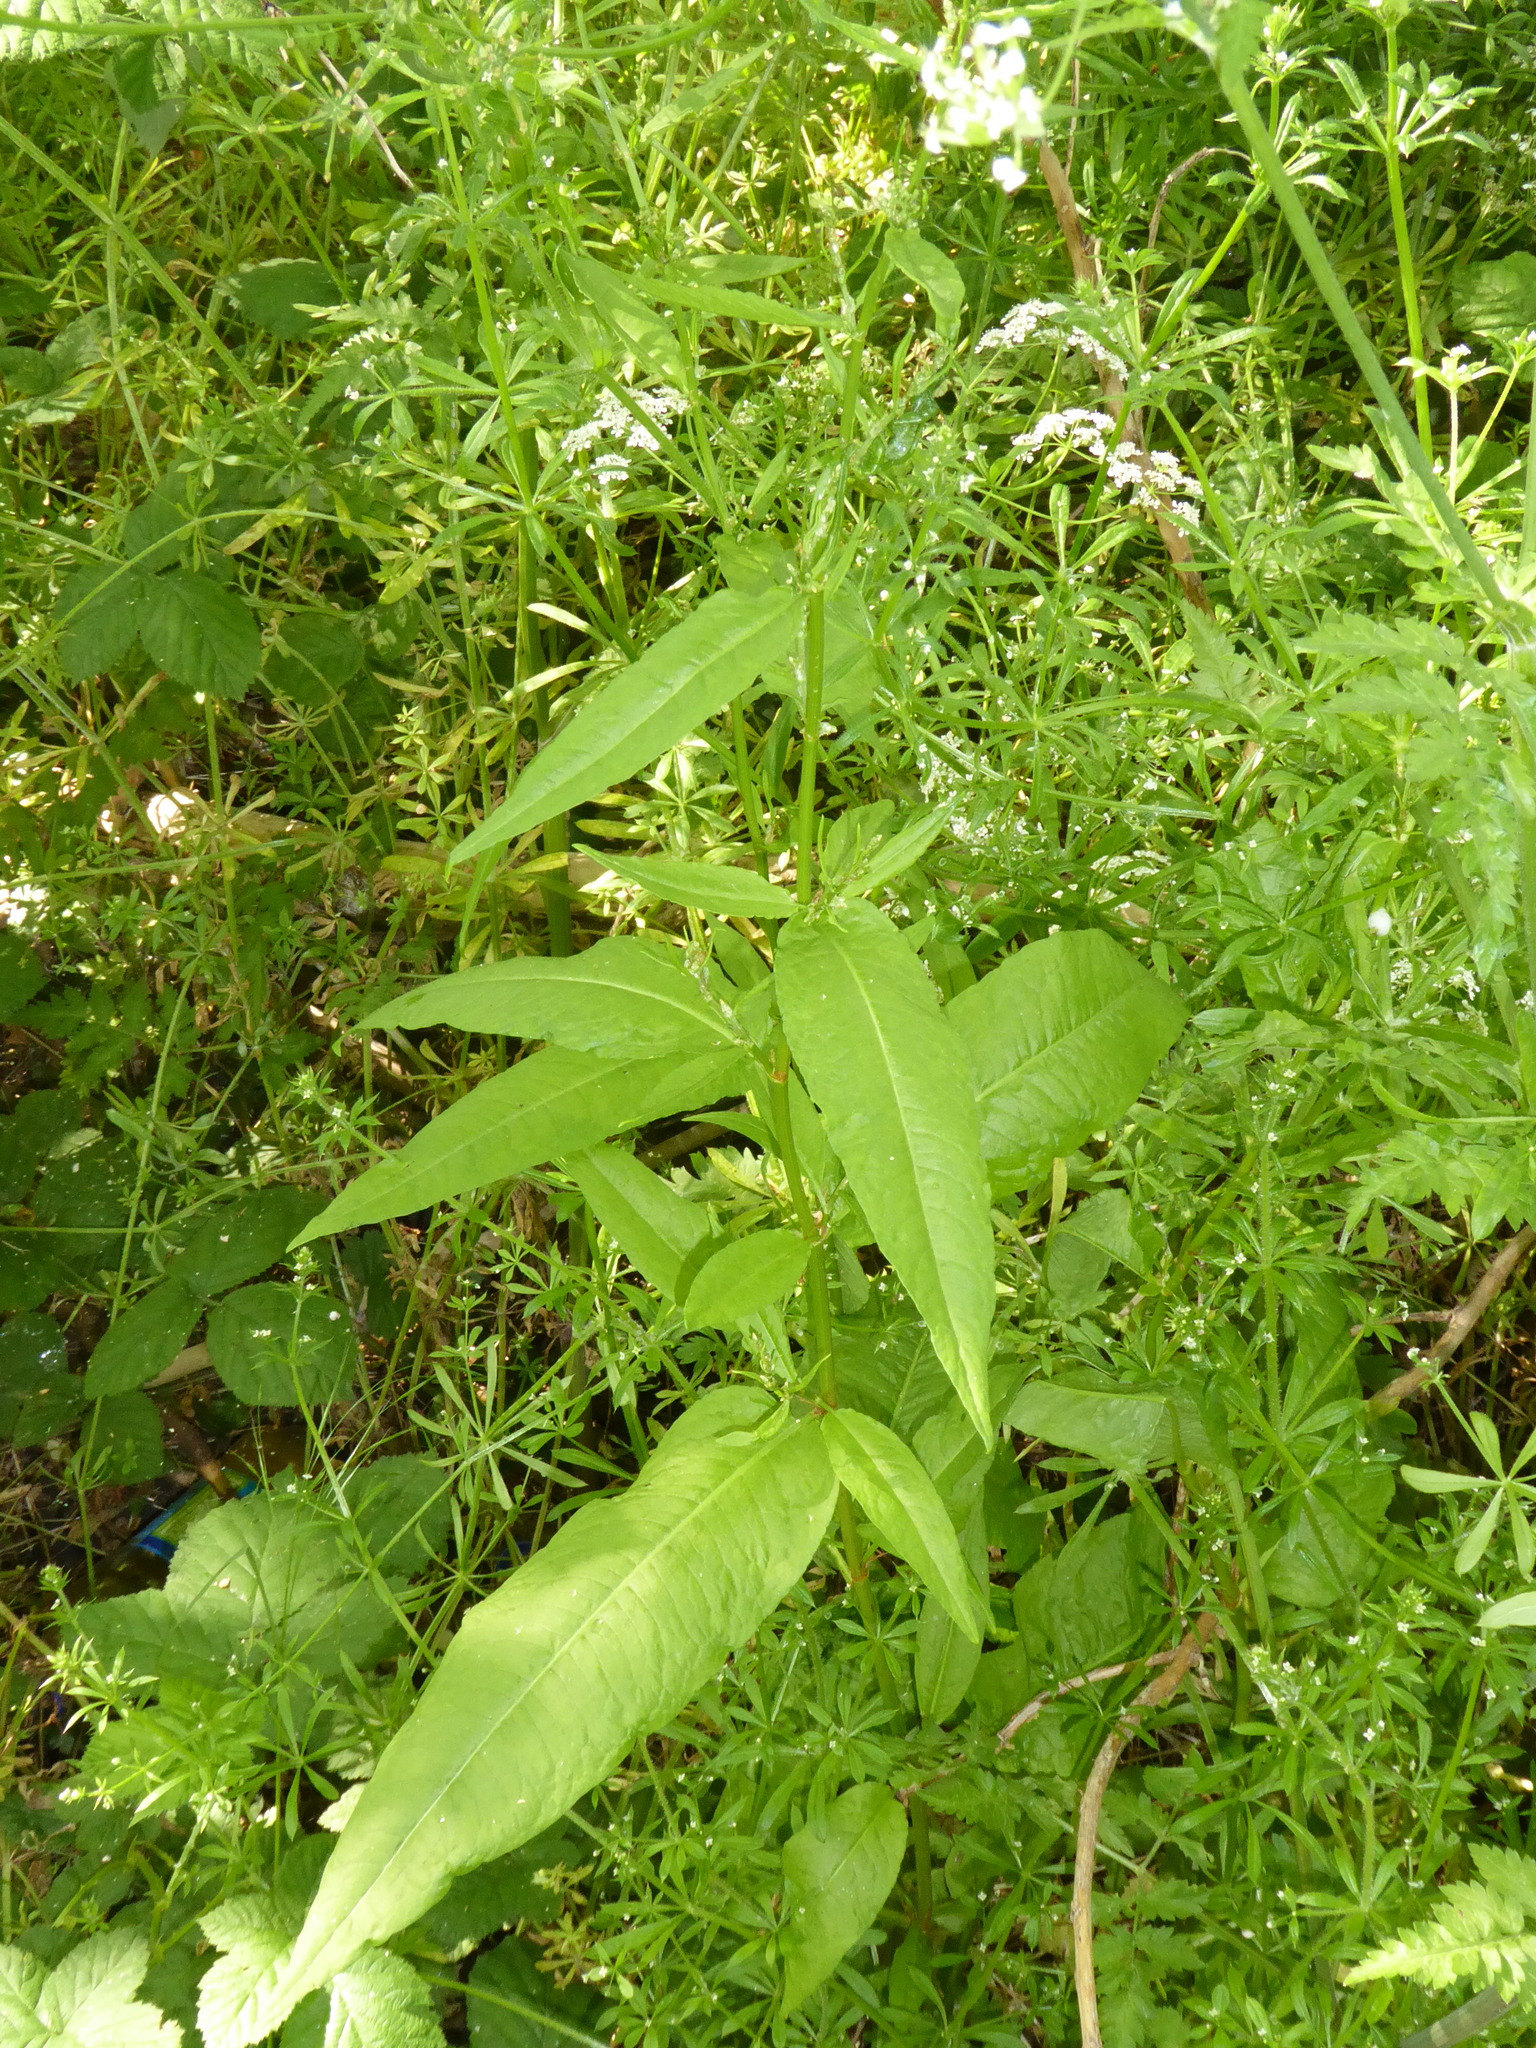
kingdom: Plantae
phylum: Tracheophyta
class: Magnoliopsida
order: Caryophyllales
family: Polygonaceae
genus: Rumex
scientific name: Rumex sanguineus
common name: Wood dock
